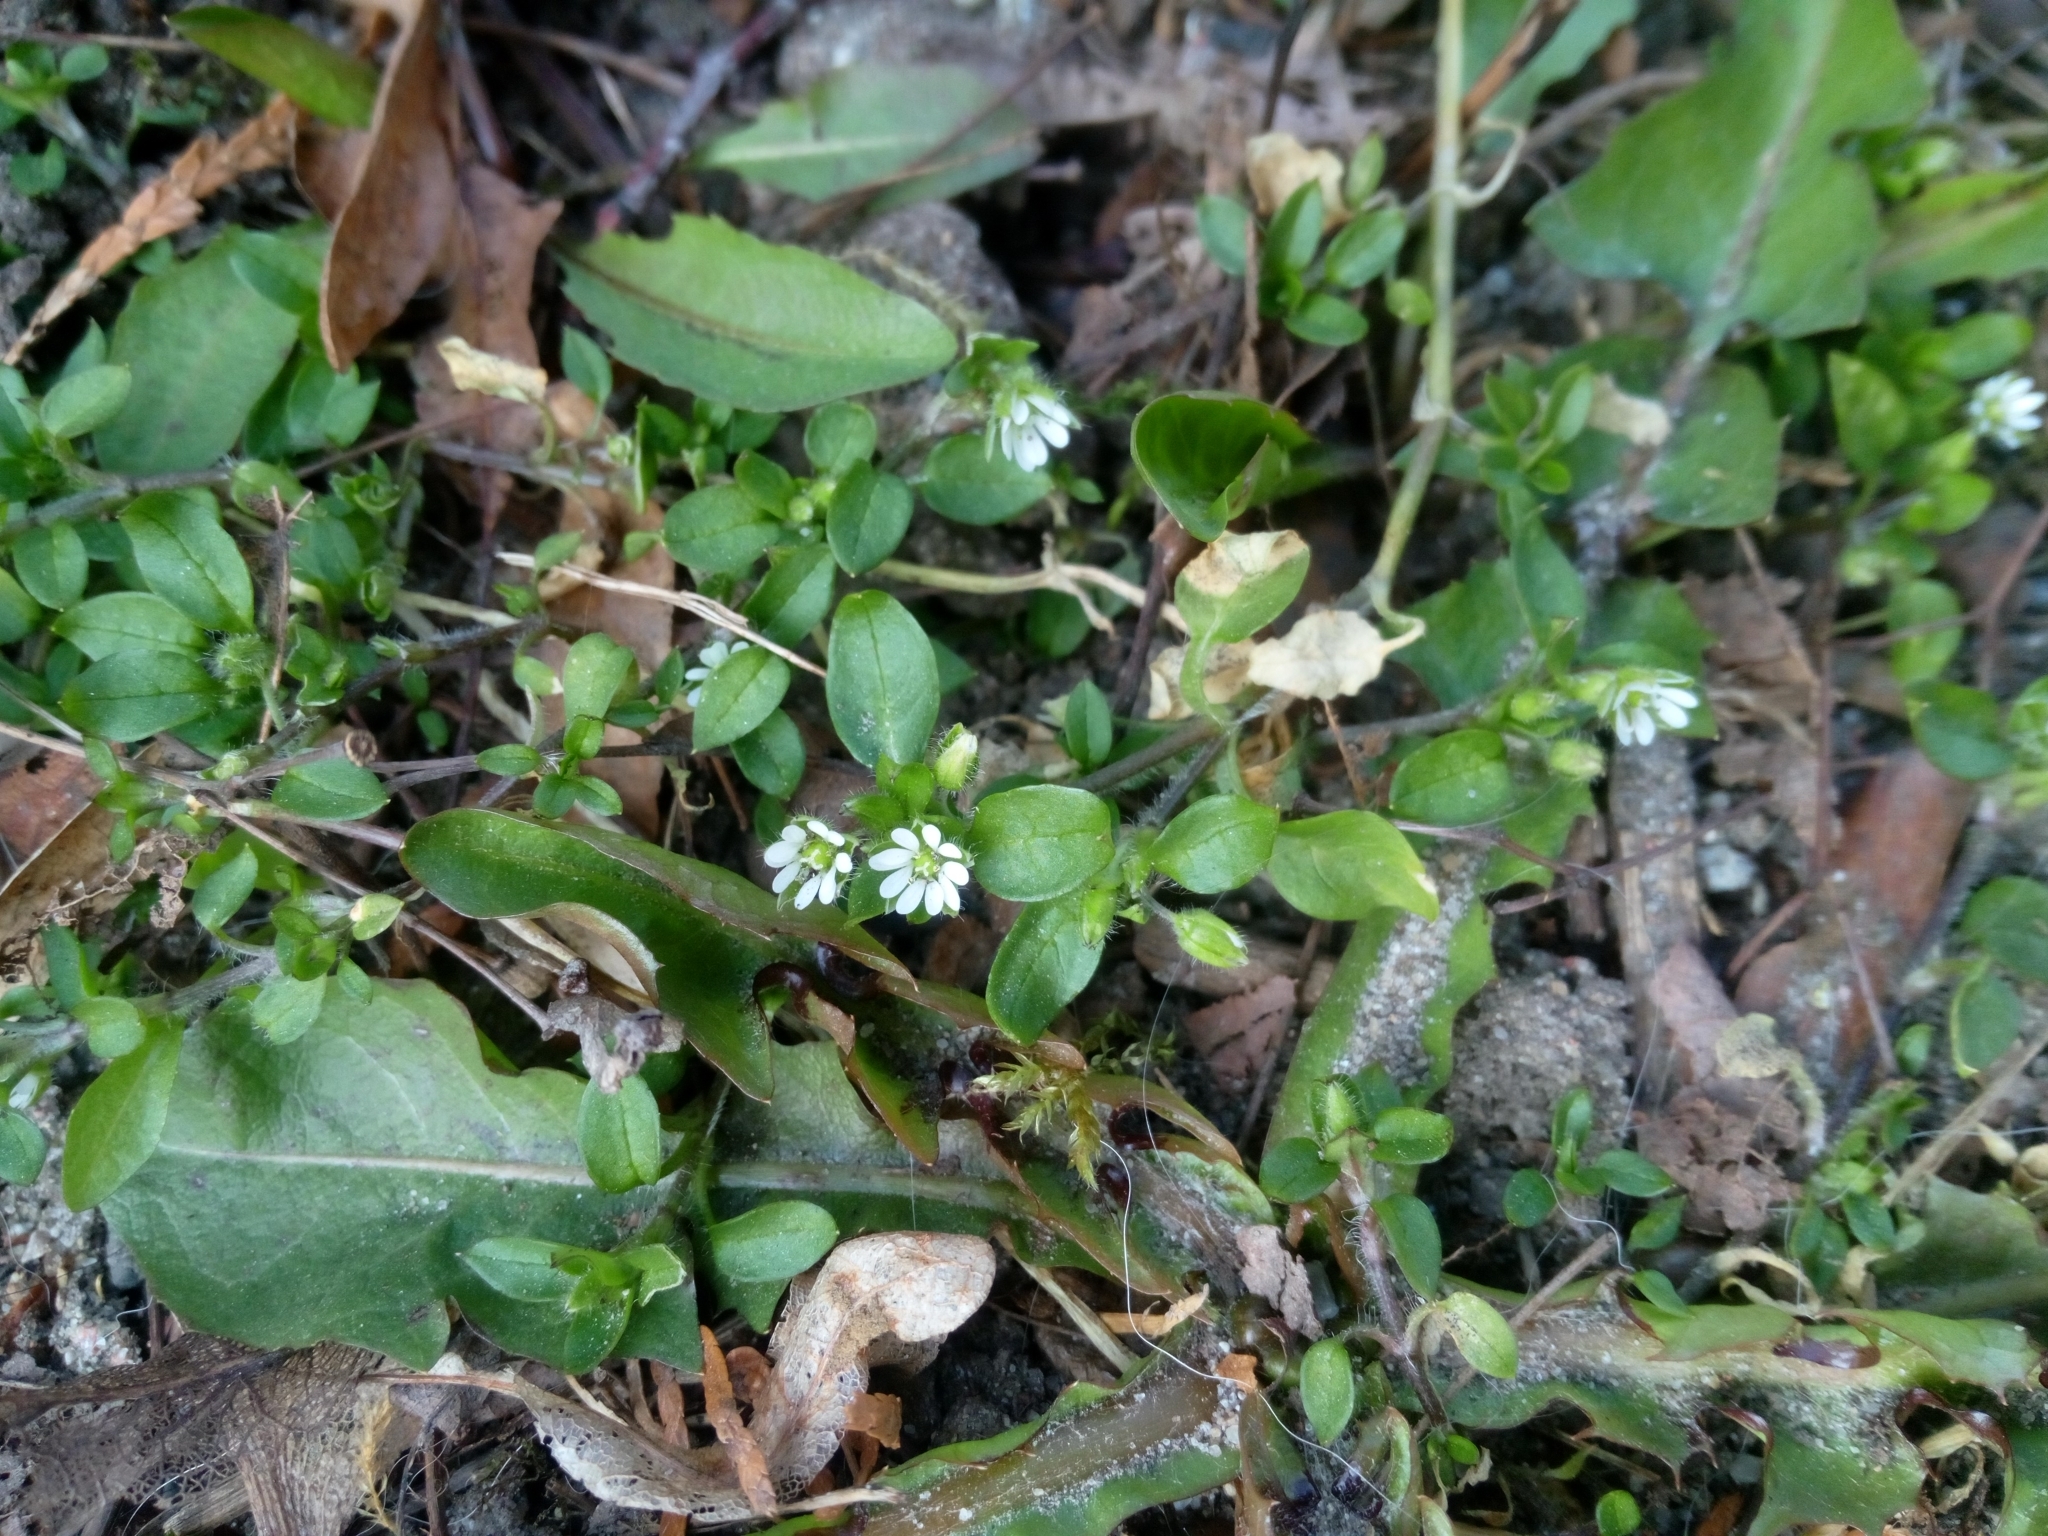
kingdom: Plantae
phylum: Tracheophyta
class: Magnoliopsida
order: Caryophyllales
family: Caryophyllaceae
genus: Stellaria
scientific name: Stellaria media
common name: Common chickweed
